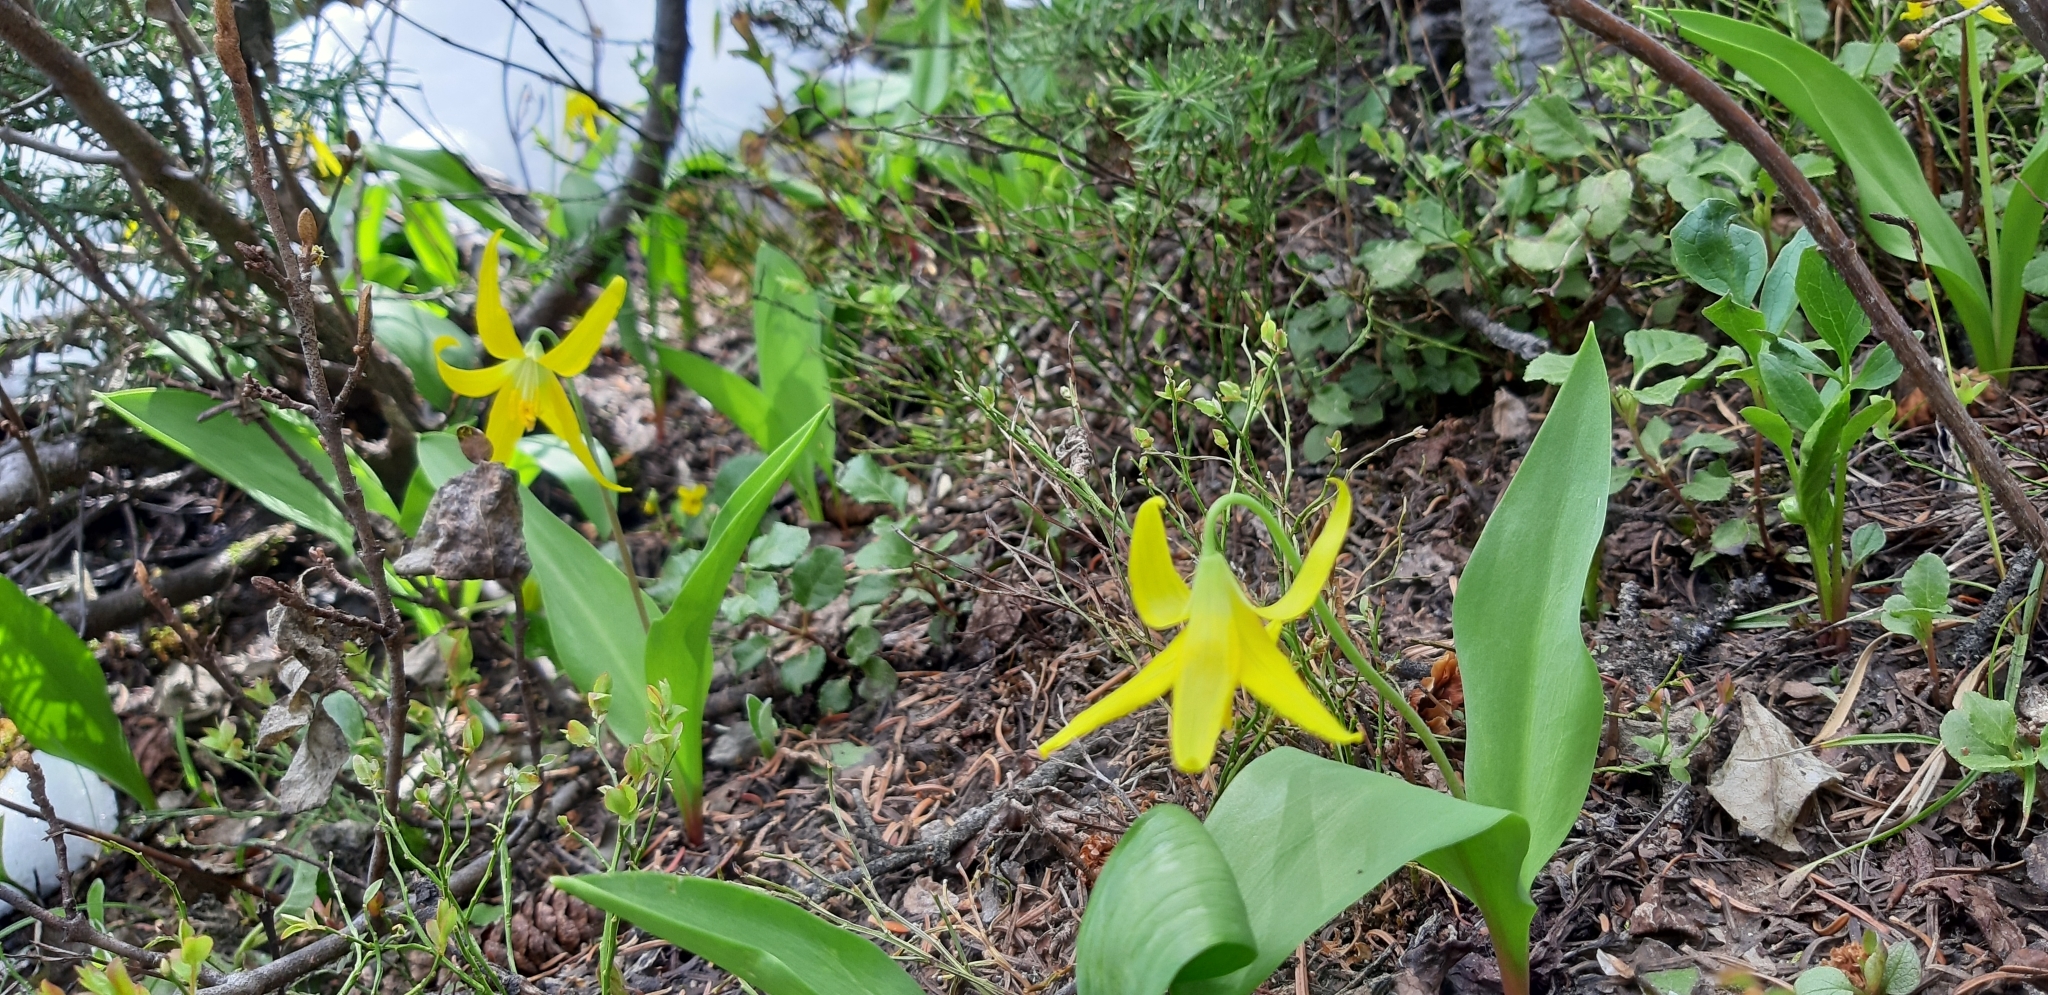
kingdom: Plantae
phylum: Tracheophyta
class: Liliopsida
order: Liliales
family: Liliaceae
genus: Erythronium
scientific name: Erythronium grandiflorum
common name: Avalanche-lily
